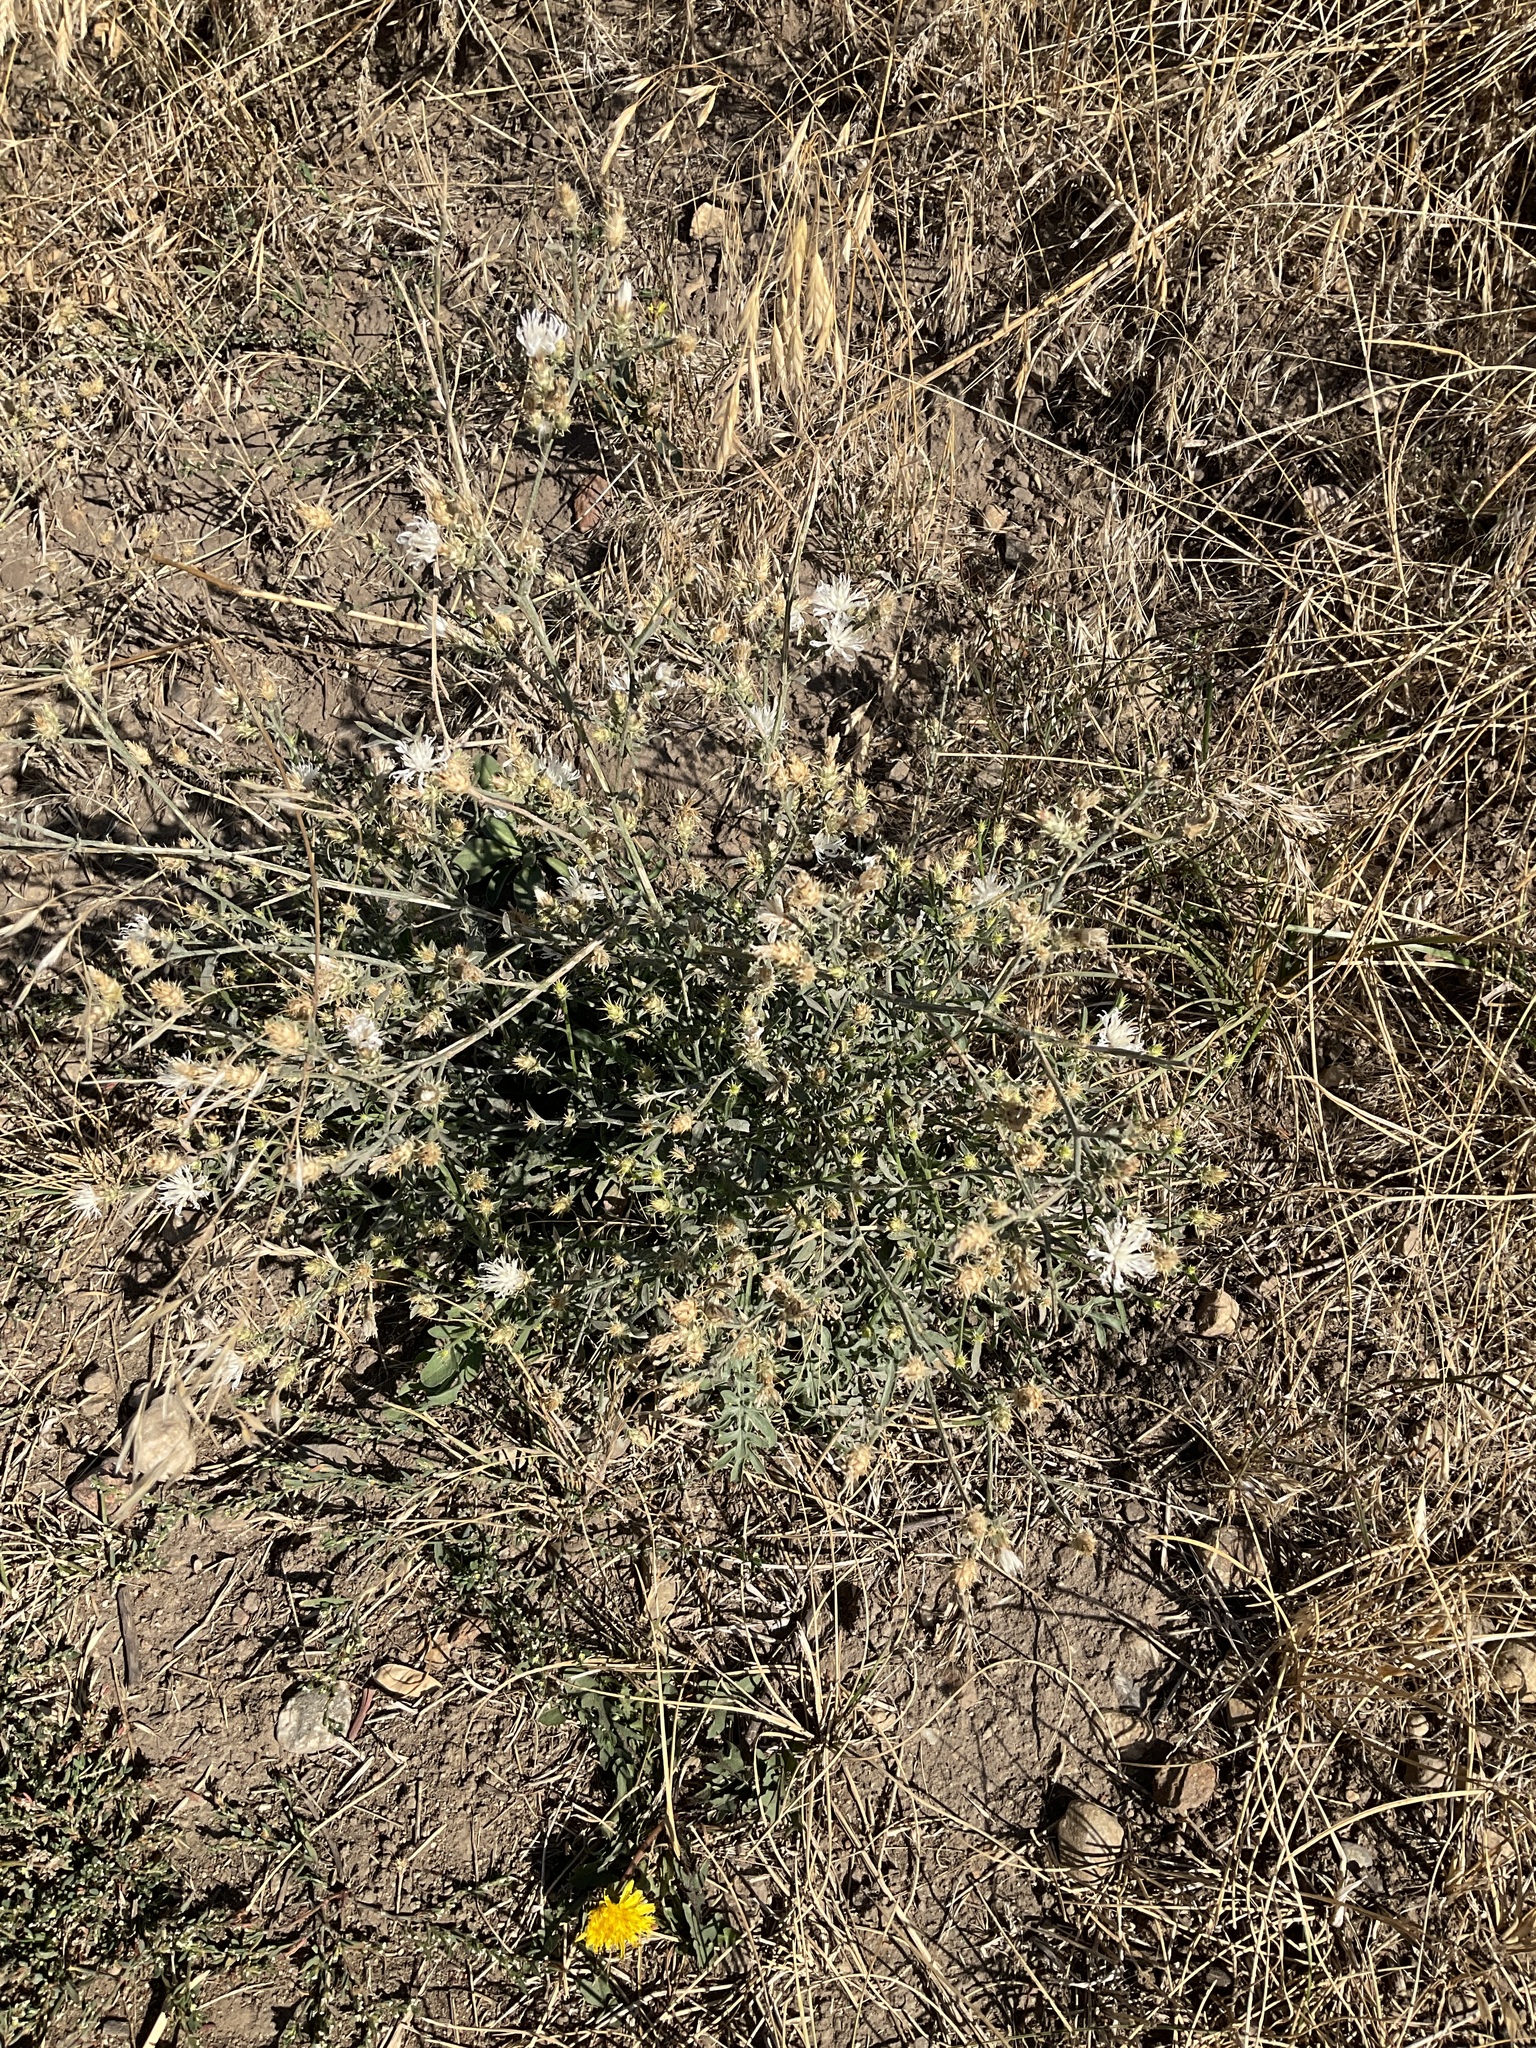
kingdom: Plantae
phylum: Tracheophyta
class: Magnoliopsida
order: Asterales
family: Asteraceae
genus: Centaurea
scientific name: Centaurea diffusa
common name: Diffuse knapweed
